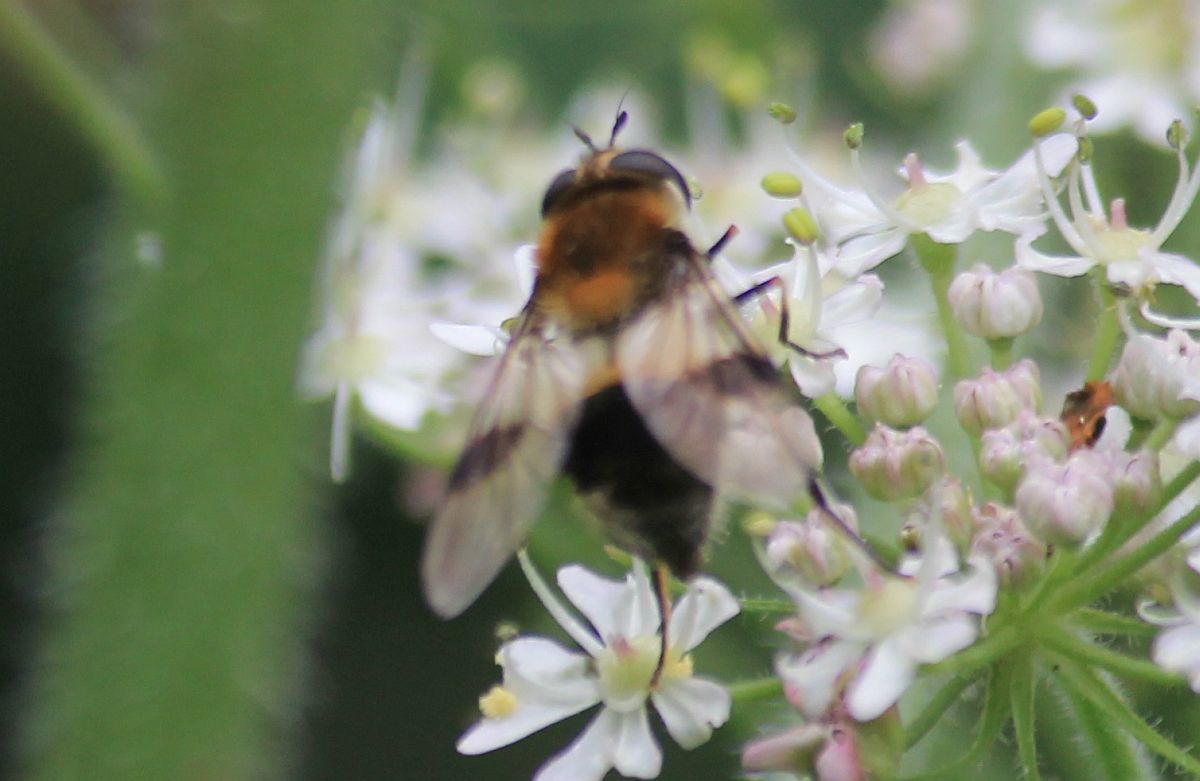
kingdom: Animalia
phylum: Arthropoda
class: Insecta
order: Diptera
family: Syrphidae
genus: Leucozona
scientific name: Leucozona lucorum
